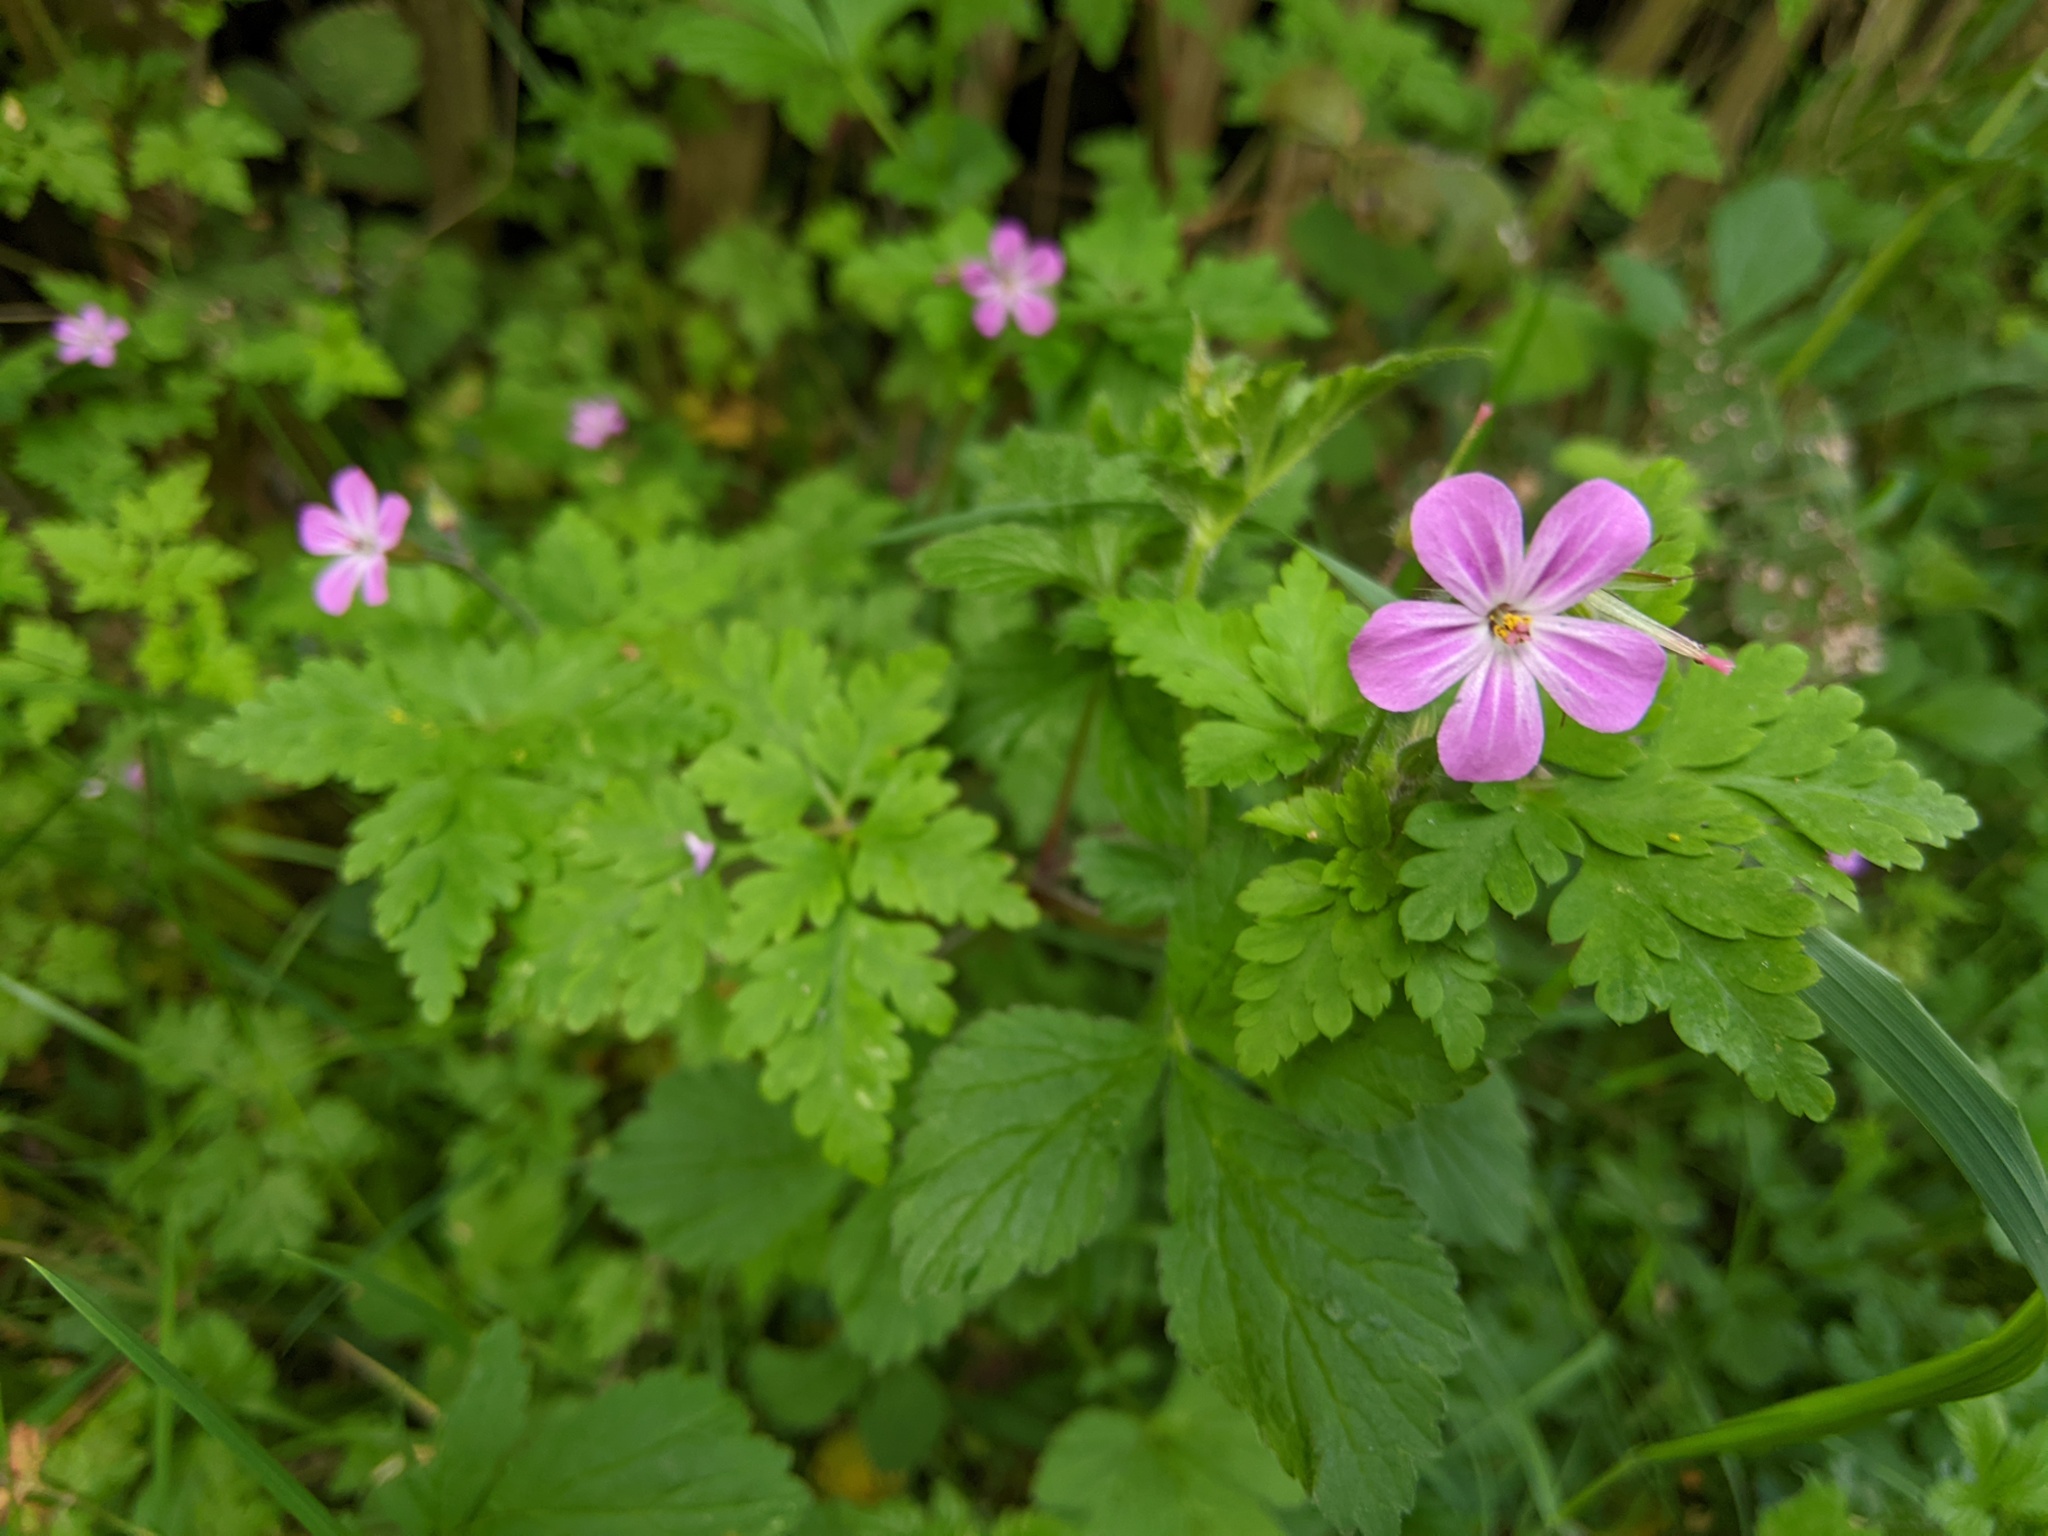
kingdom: Plantae
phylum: Tracheophyta
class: Magnoliopsida
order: Geraniales
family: Geraniaceae
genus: Geranium
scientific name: Geranium robertianum
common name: Herb-robert
